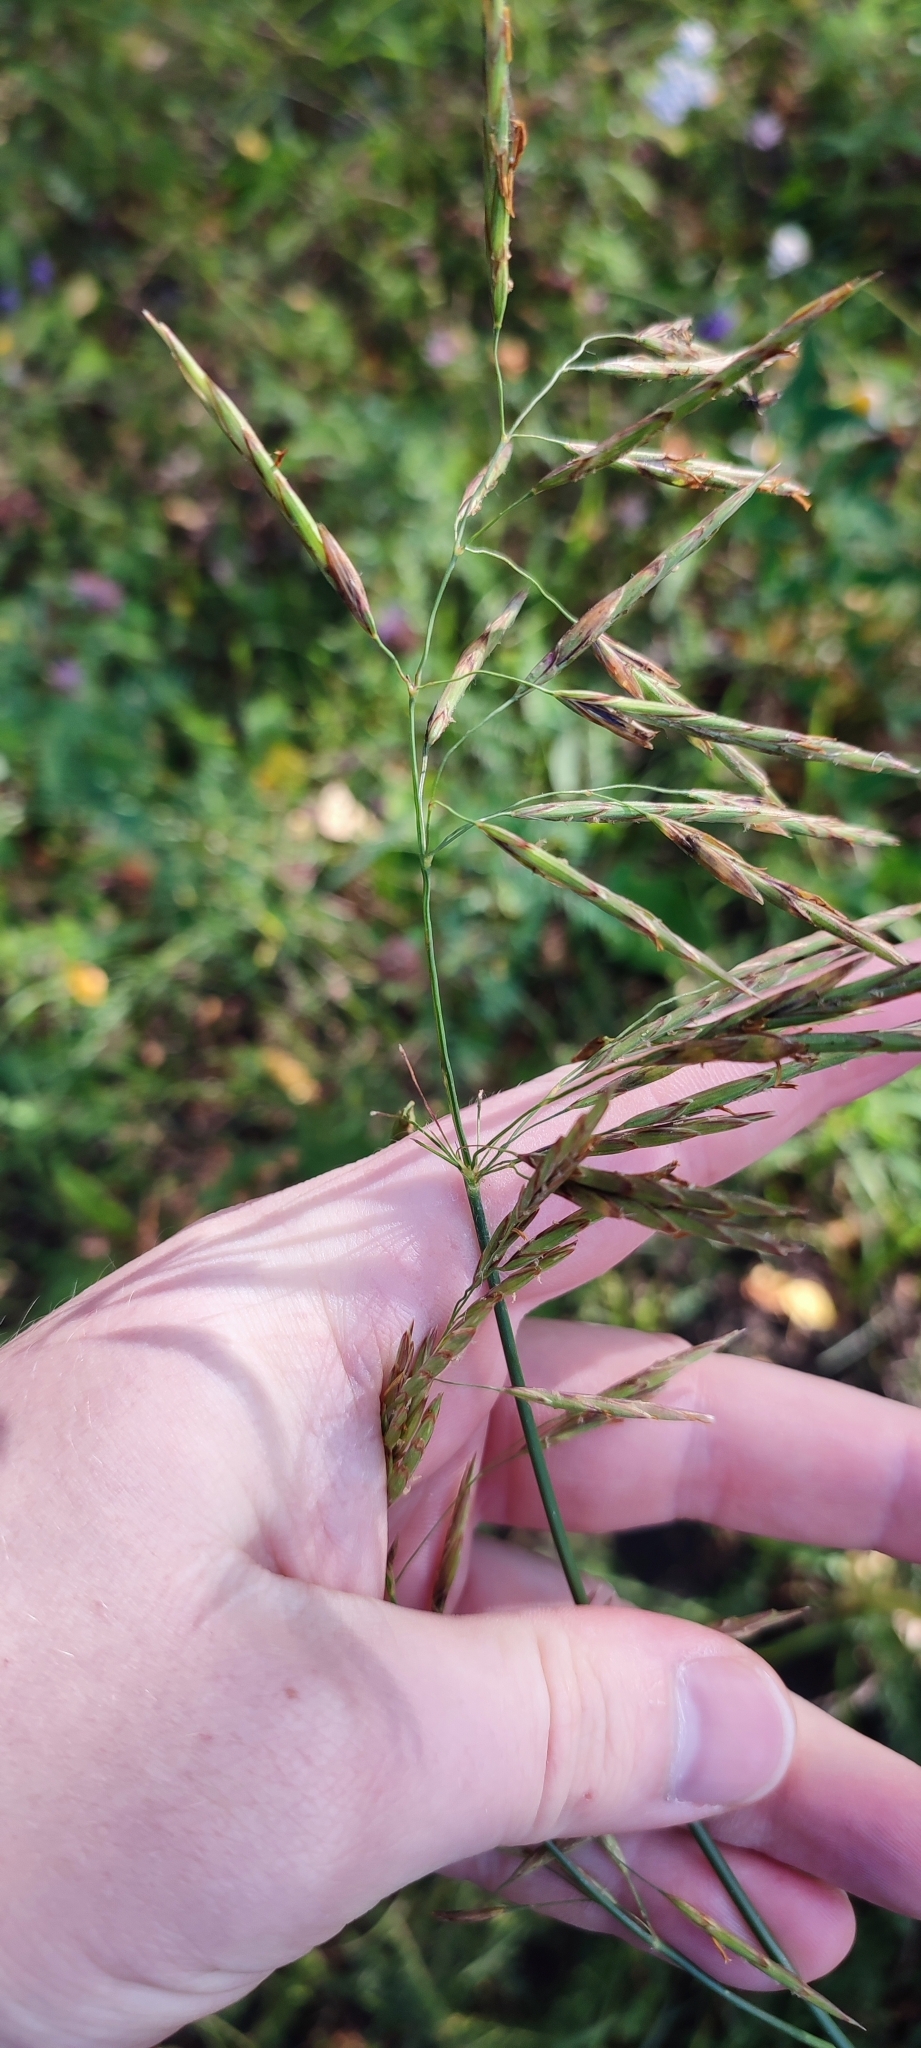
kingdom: Plantae
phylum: Tracheophyta
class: Liliopsida
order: Poales
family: Poaceae
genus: Bromus
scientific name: Bromus inermis
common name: Smooth brome
